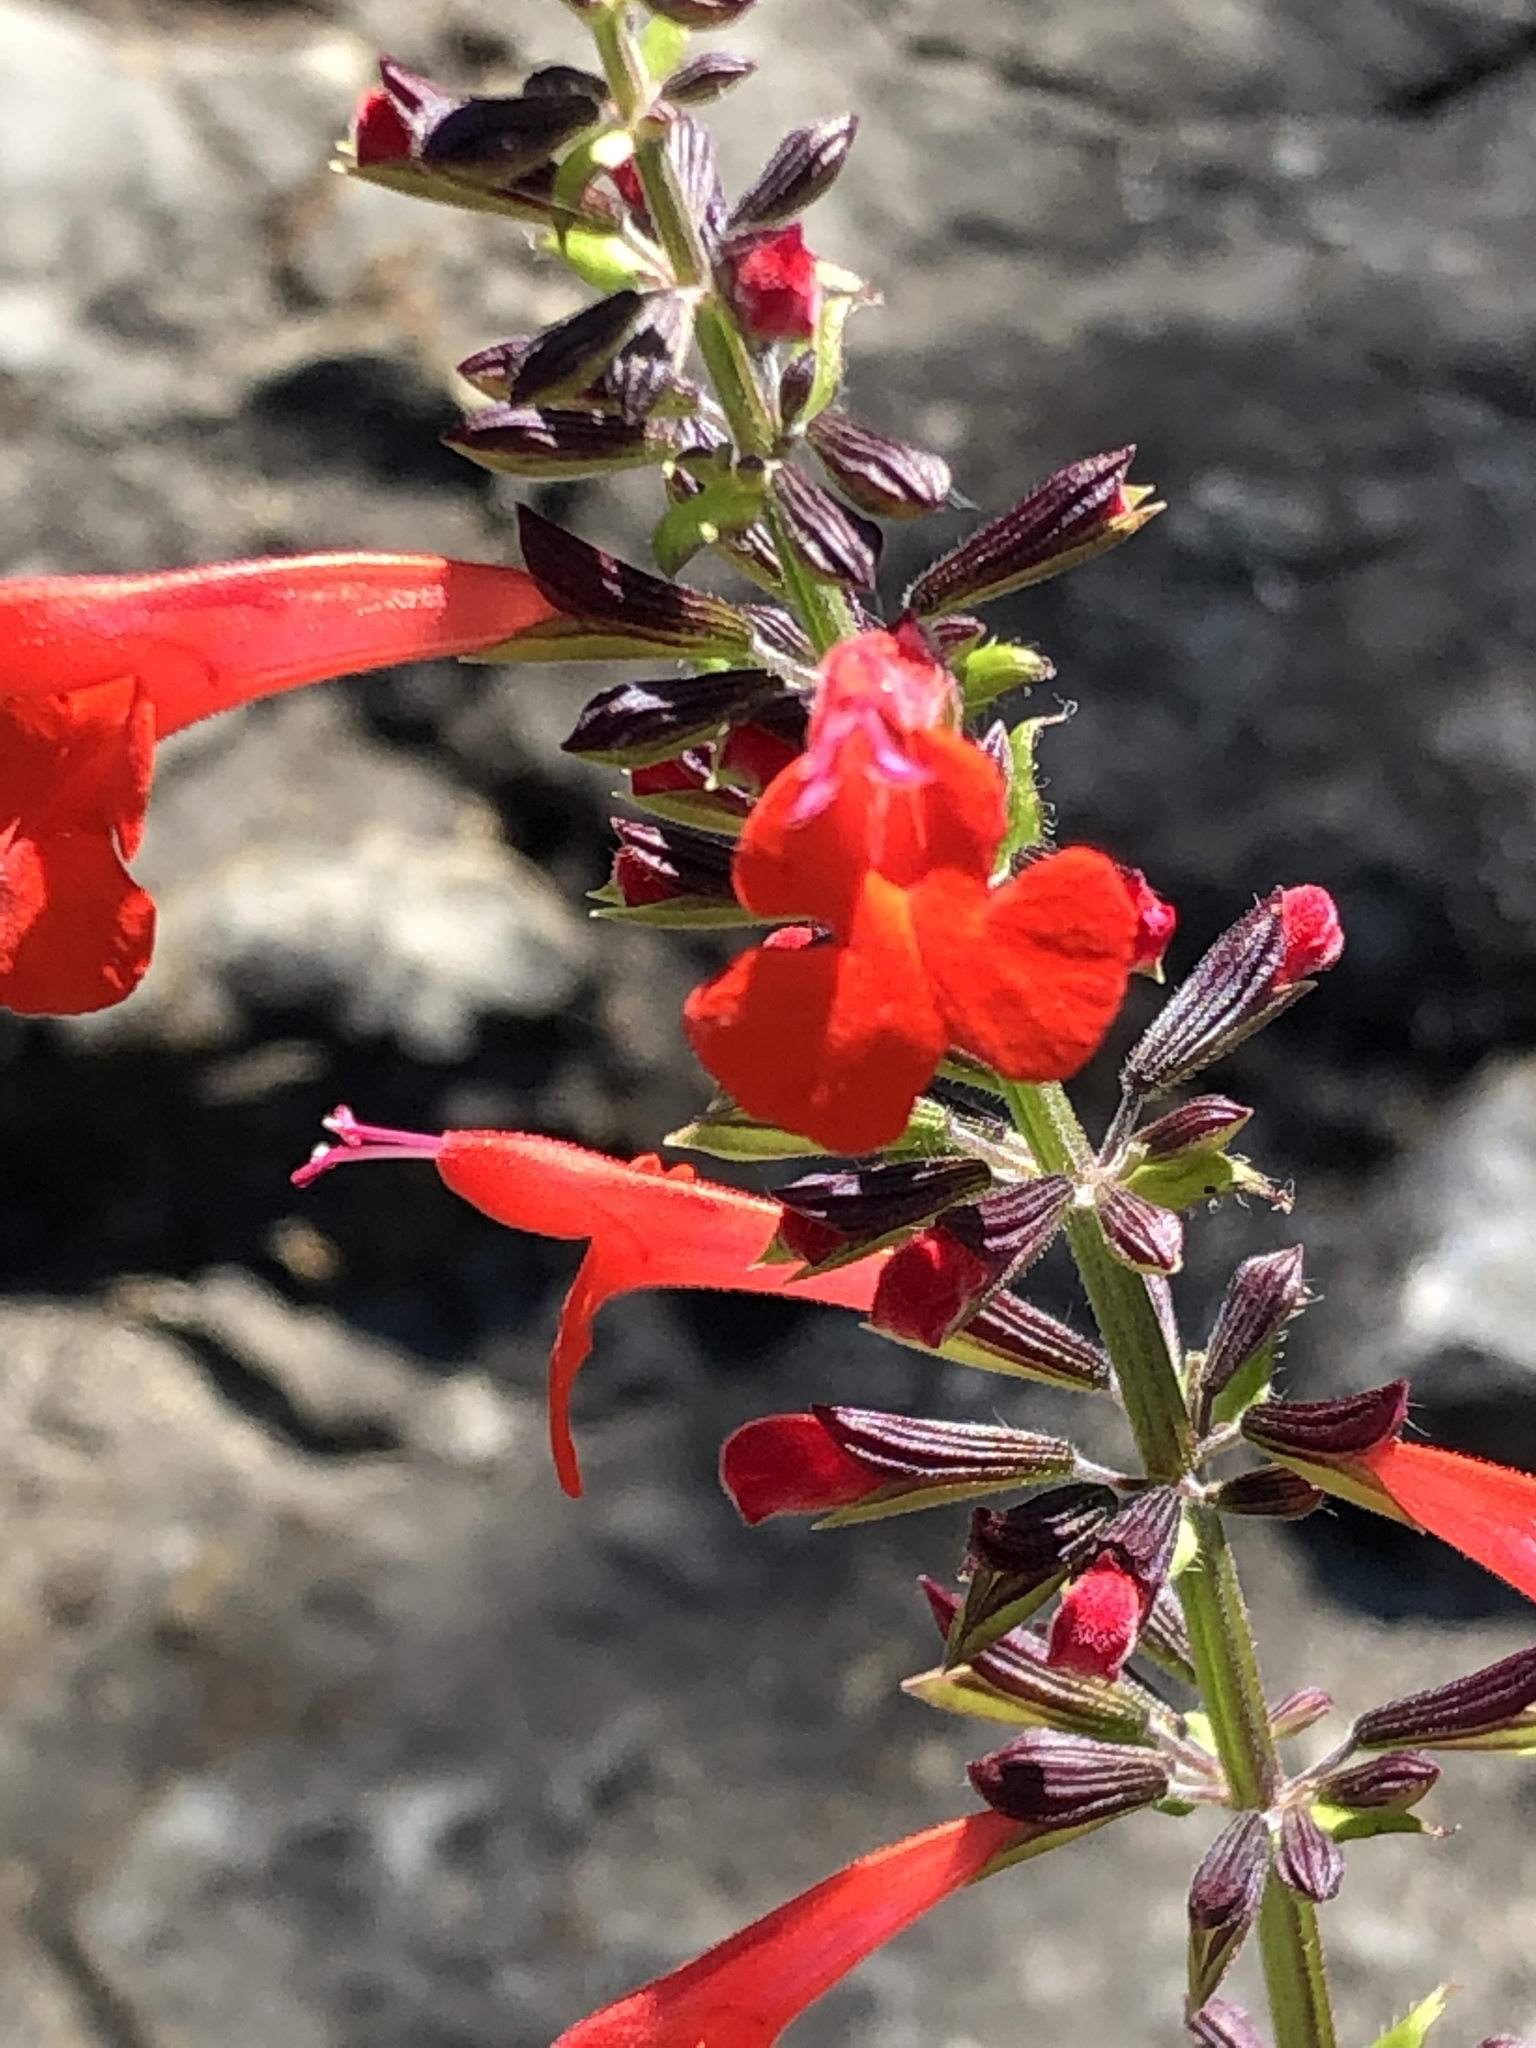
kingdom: Plantae
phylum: Tracheophyta
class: Magnoliopsida
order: Lamiales
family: Lamiaceae
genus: Salvia
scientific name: Salvia coccinea
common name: Blood sage
